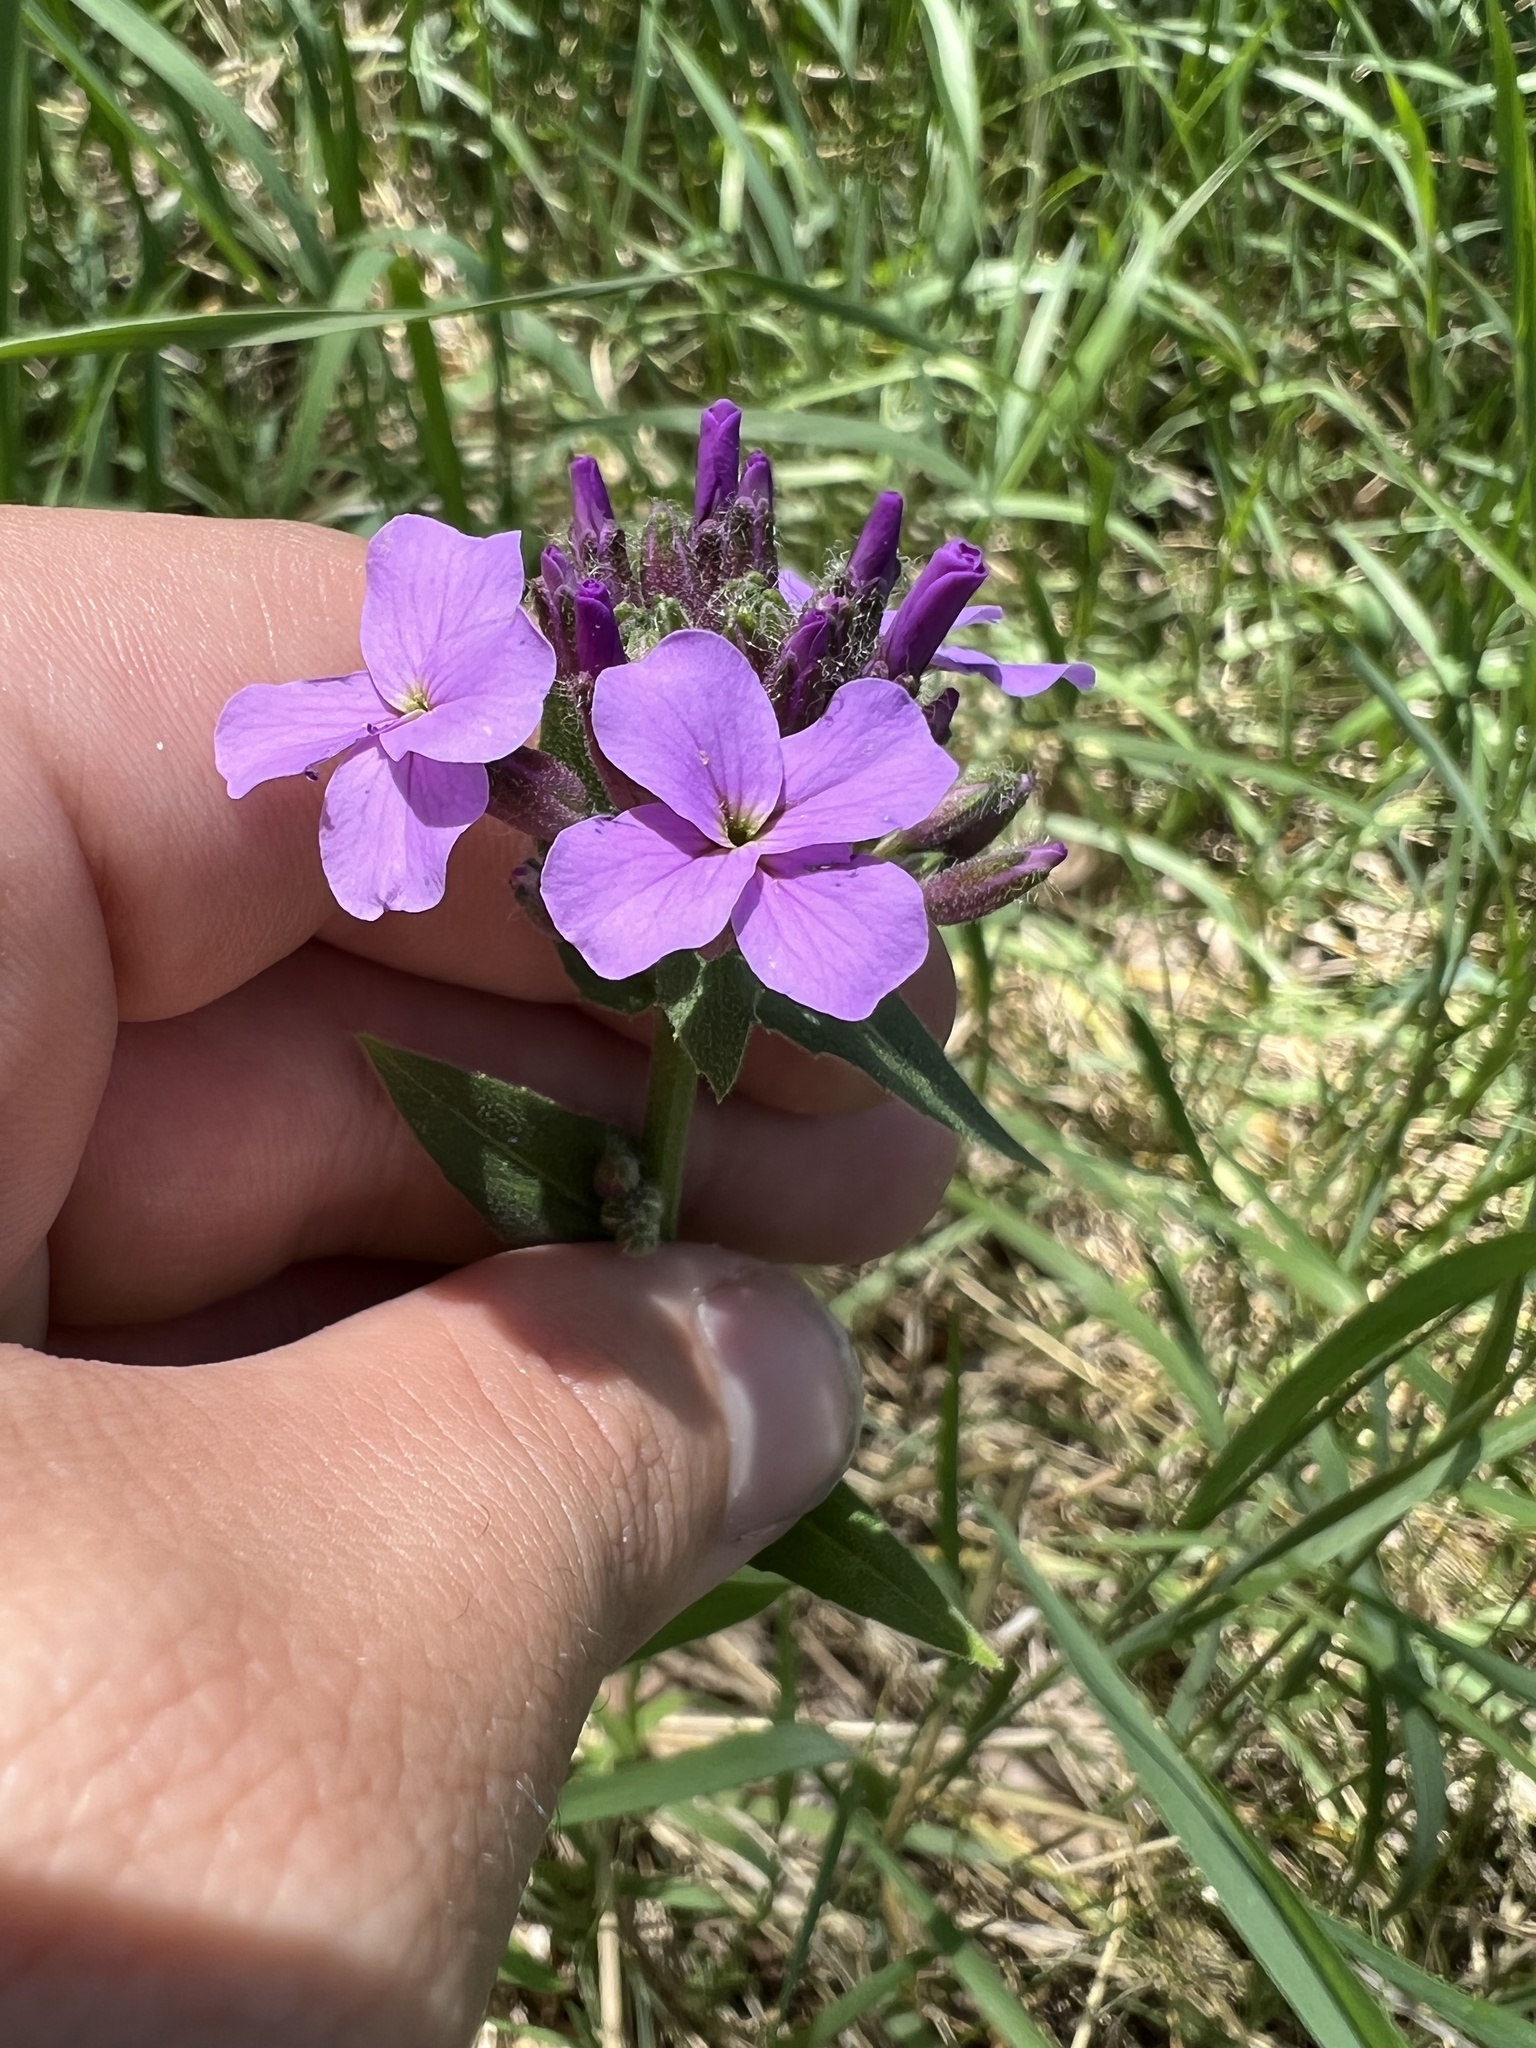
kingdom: Plantae
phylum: Tracheophyta
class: Magnoliopsida
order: Brassicales
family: Brassicaceae
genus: Hesperis
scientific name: Hesperis matronalis
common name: Dame's-violet
